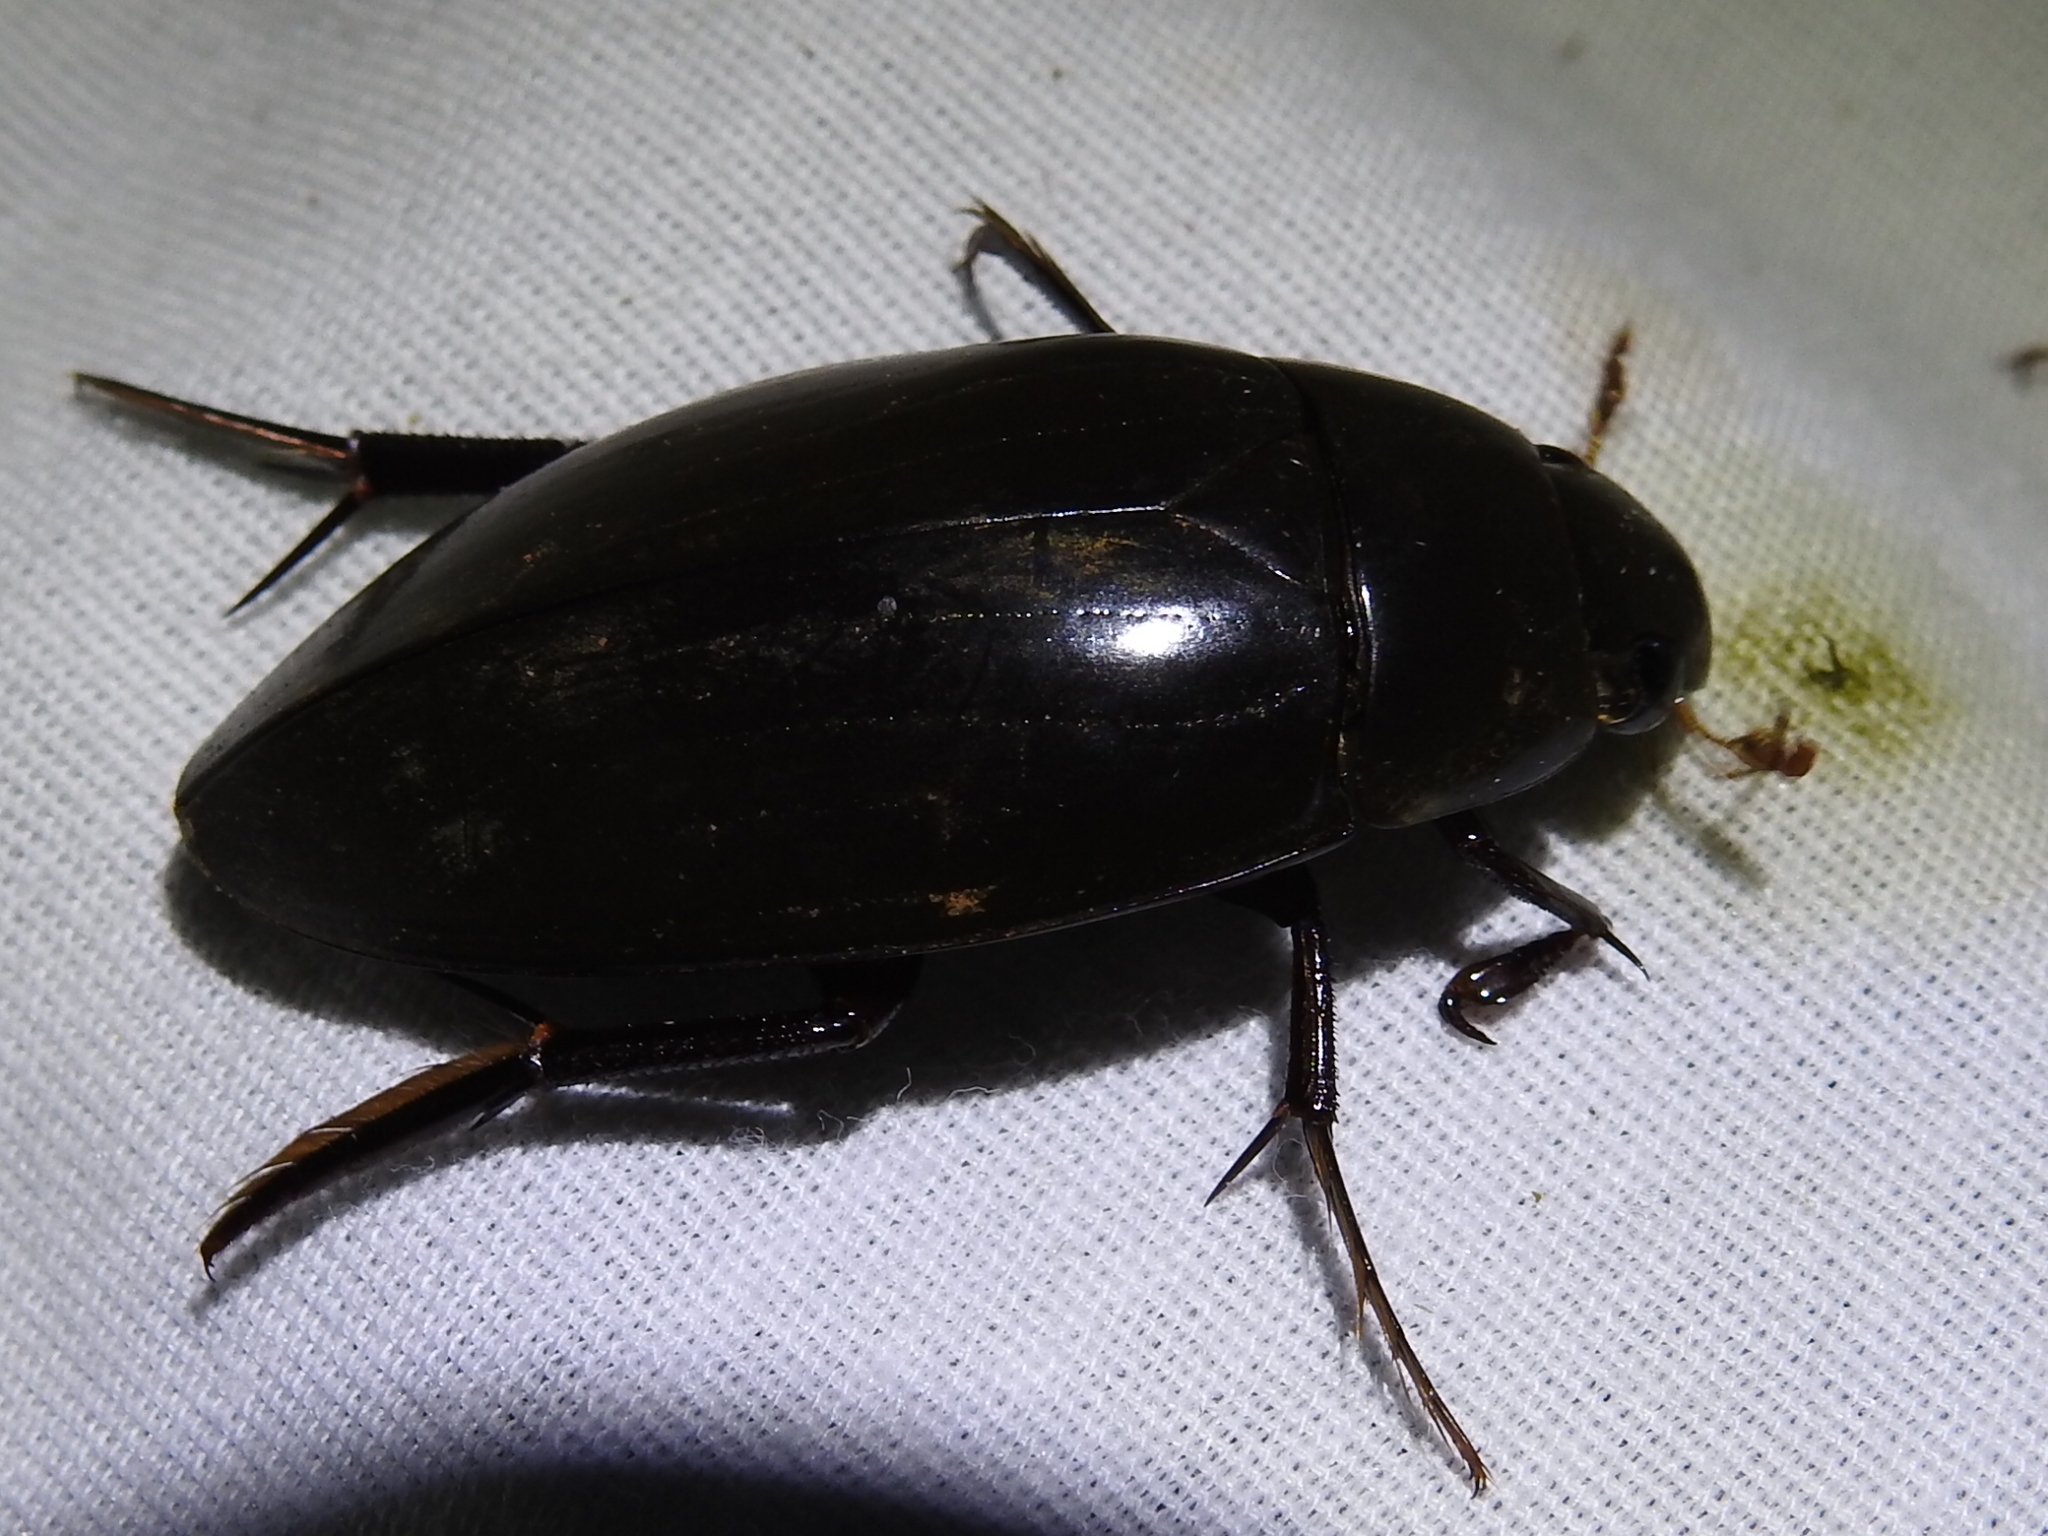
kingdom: Animalia
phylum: Arthropoda
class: Insecta
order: Coleoptera
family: Hydrophilidae
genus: Hydrophilus
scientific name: Hydrophilus triangularis
